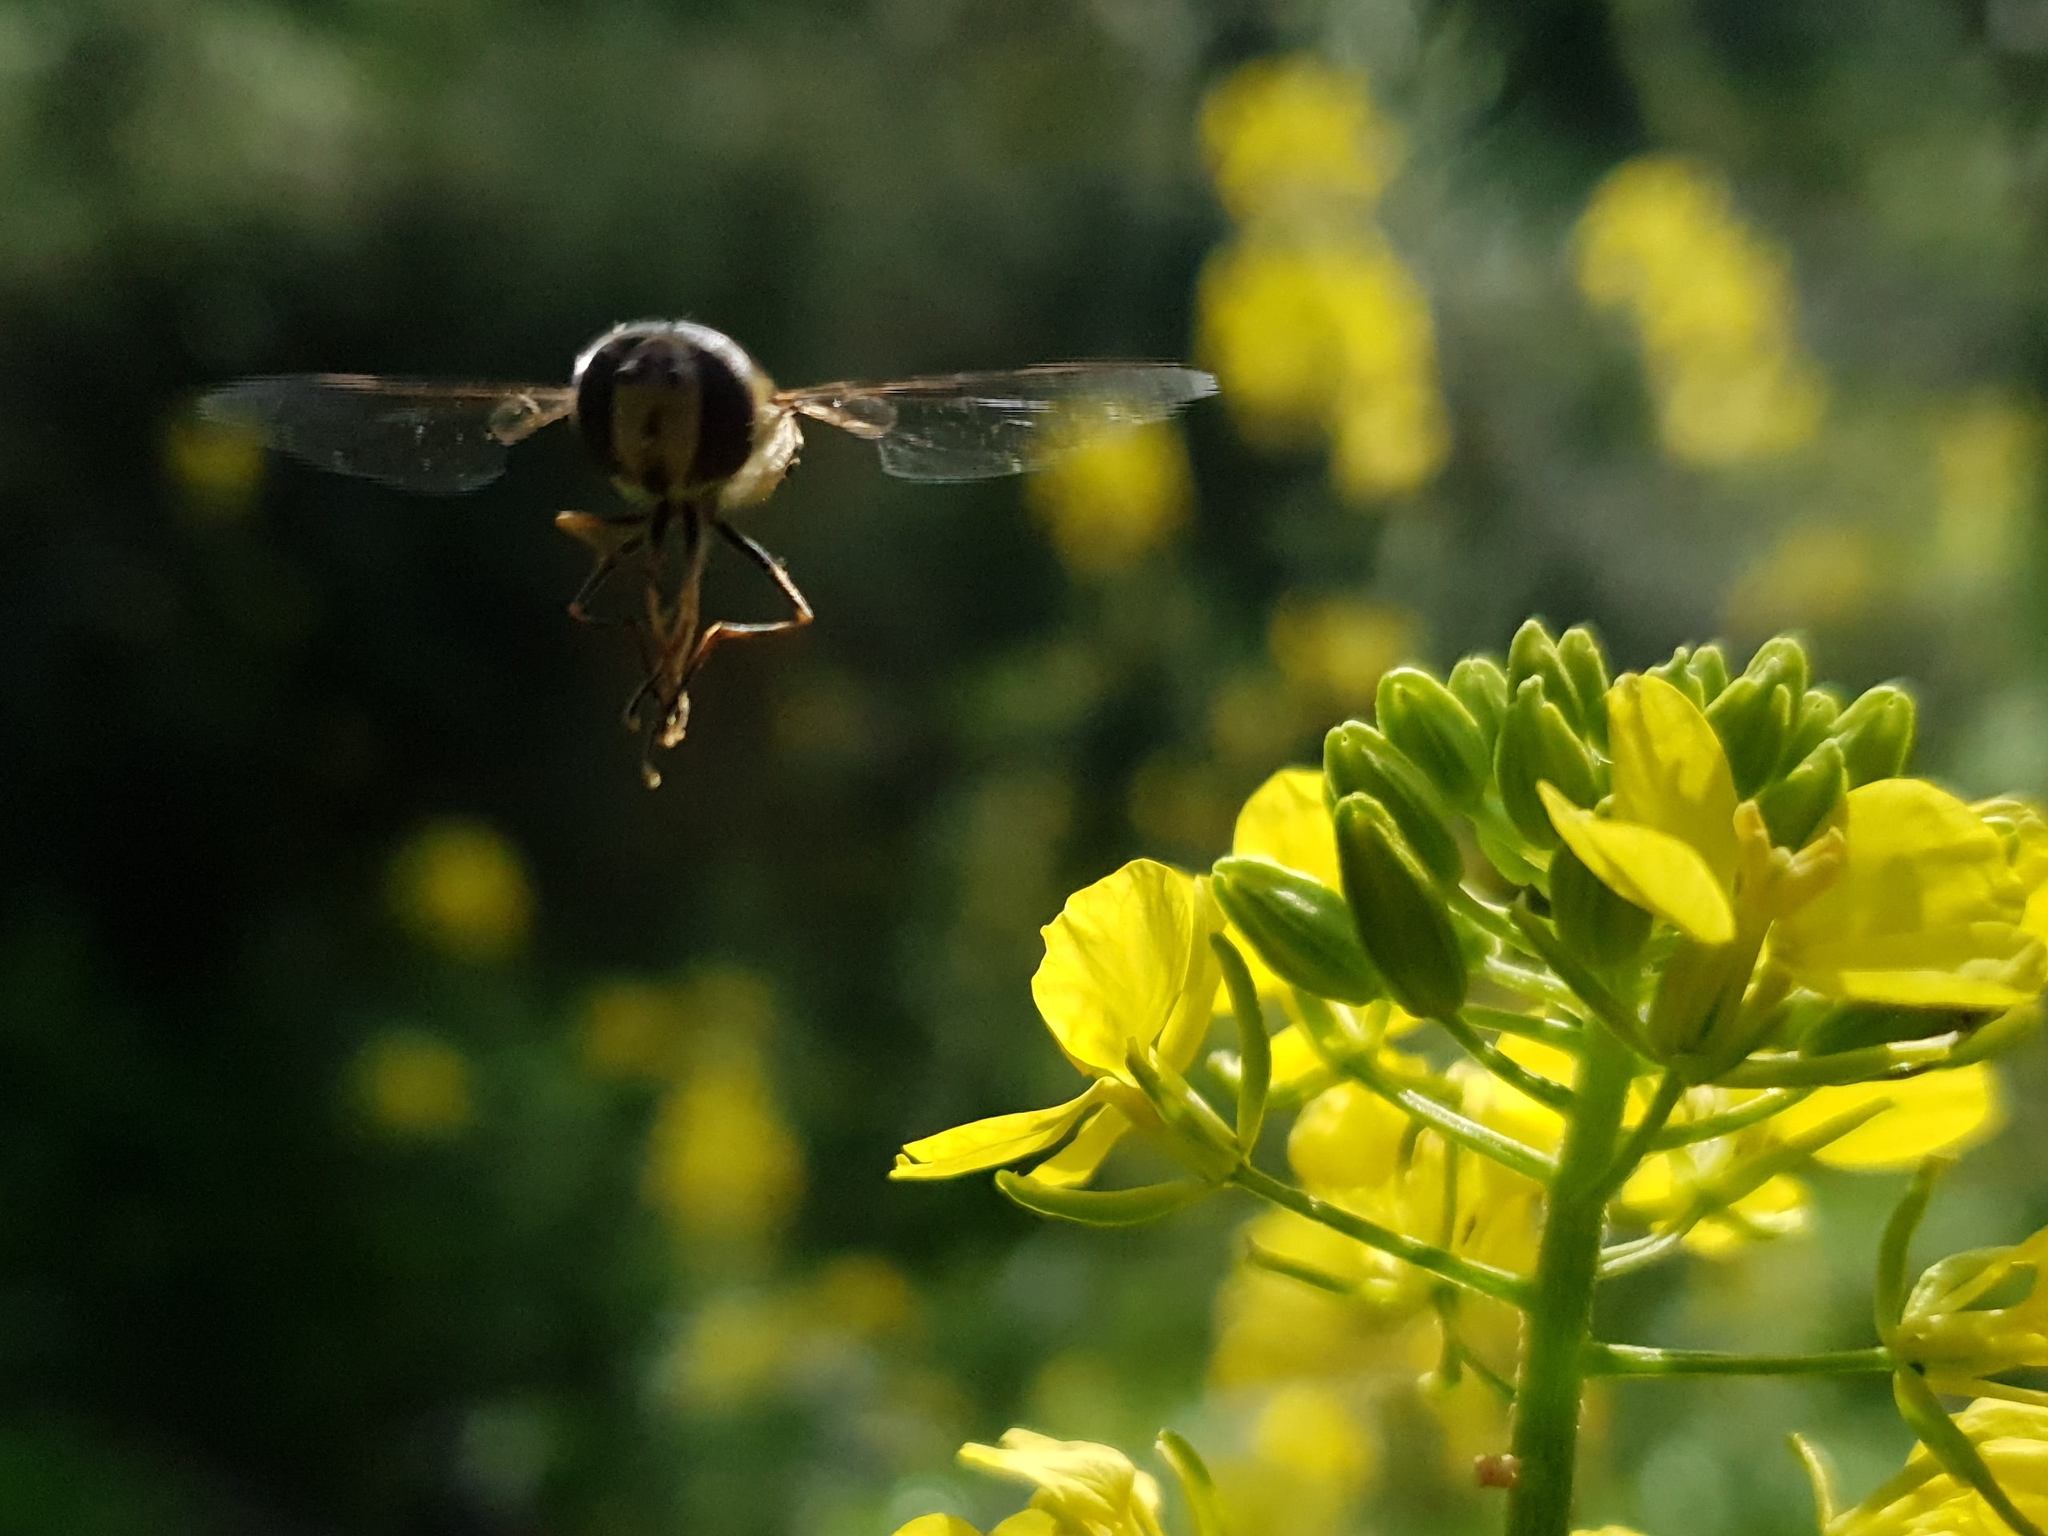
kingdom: Animalia
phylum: Arthropoda
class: Insecta
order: Diptera
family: Syrphidae
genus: Episyrphus
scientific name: Episyrphus balteatus
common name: Marmalade hoverfly
